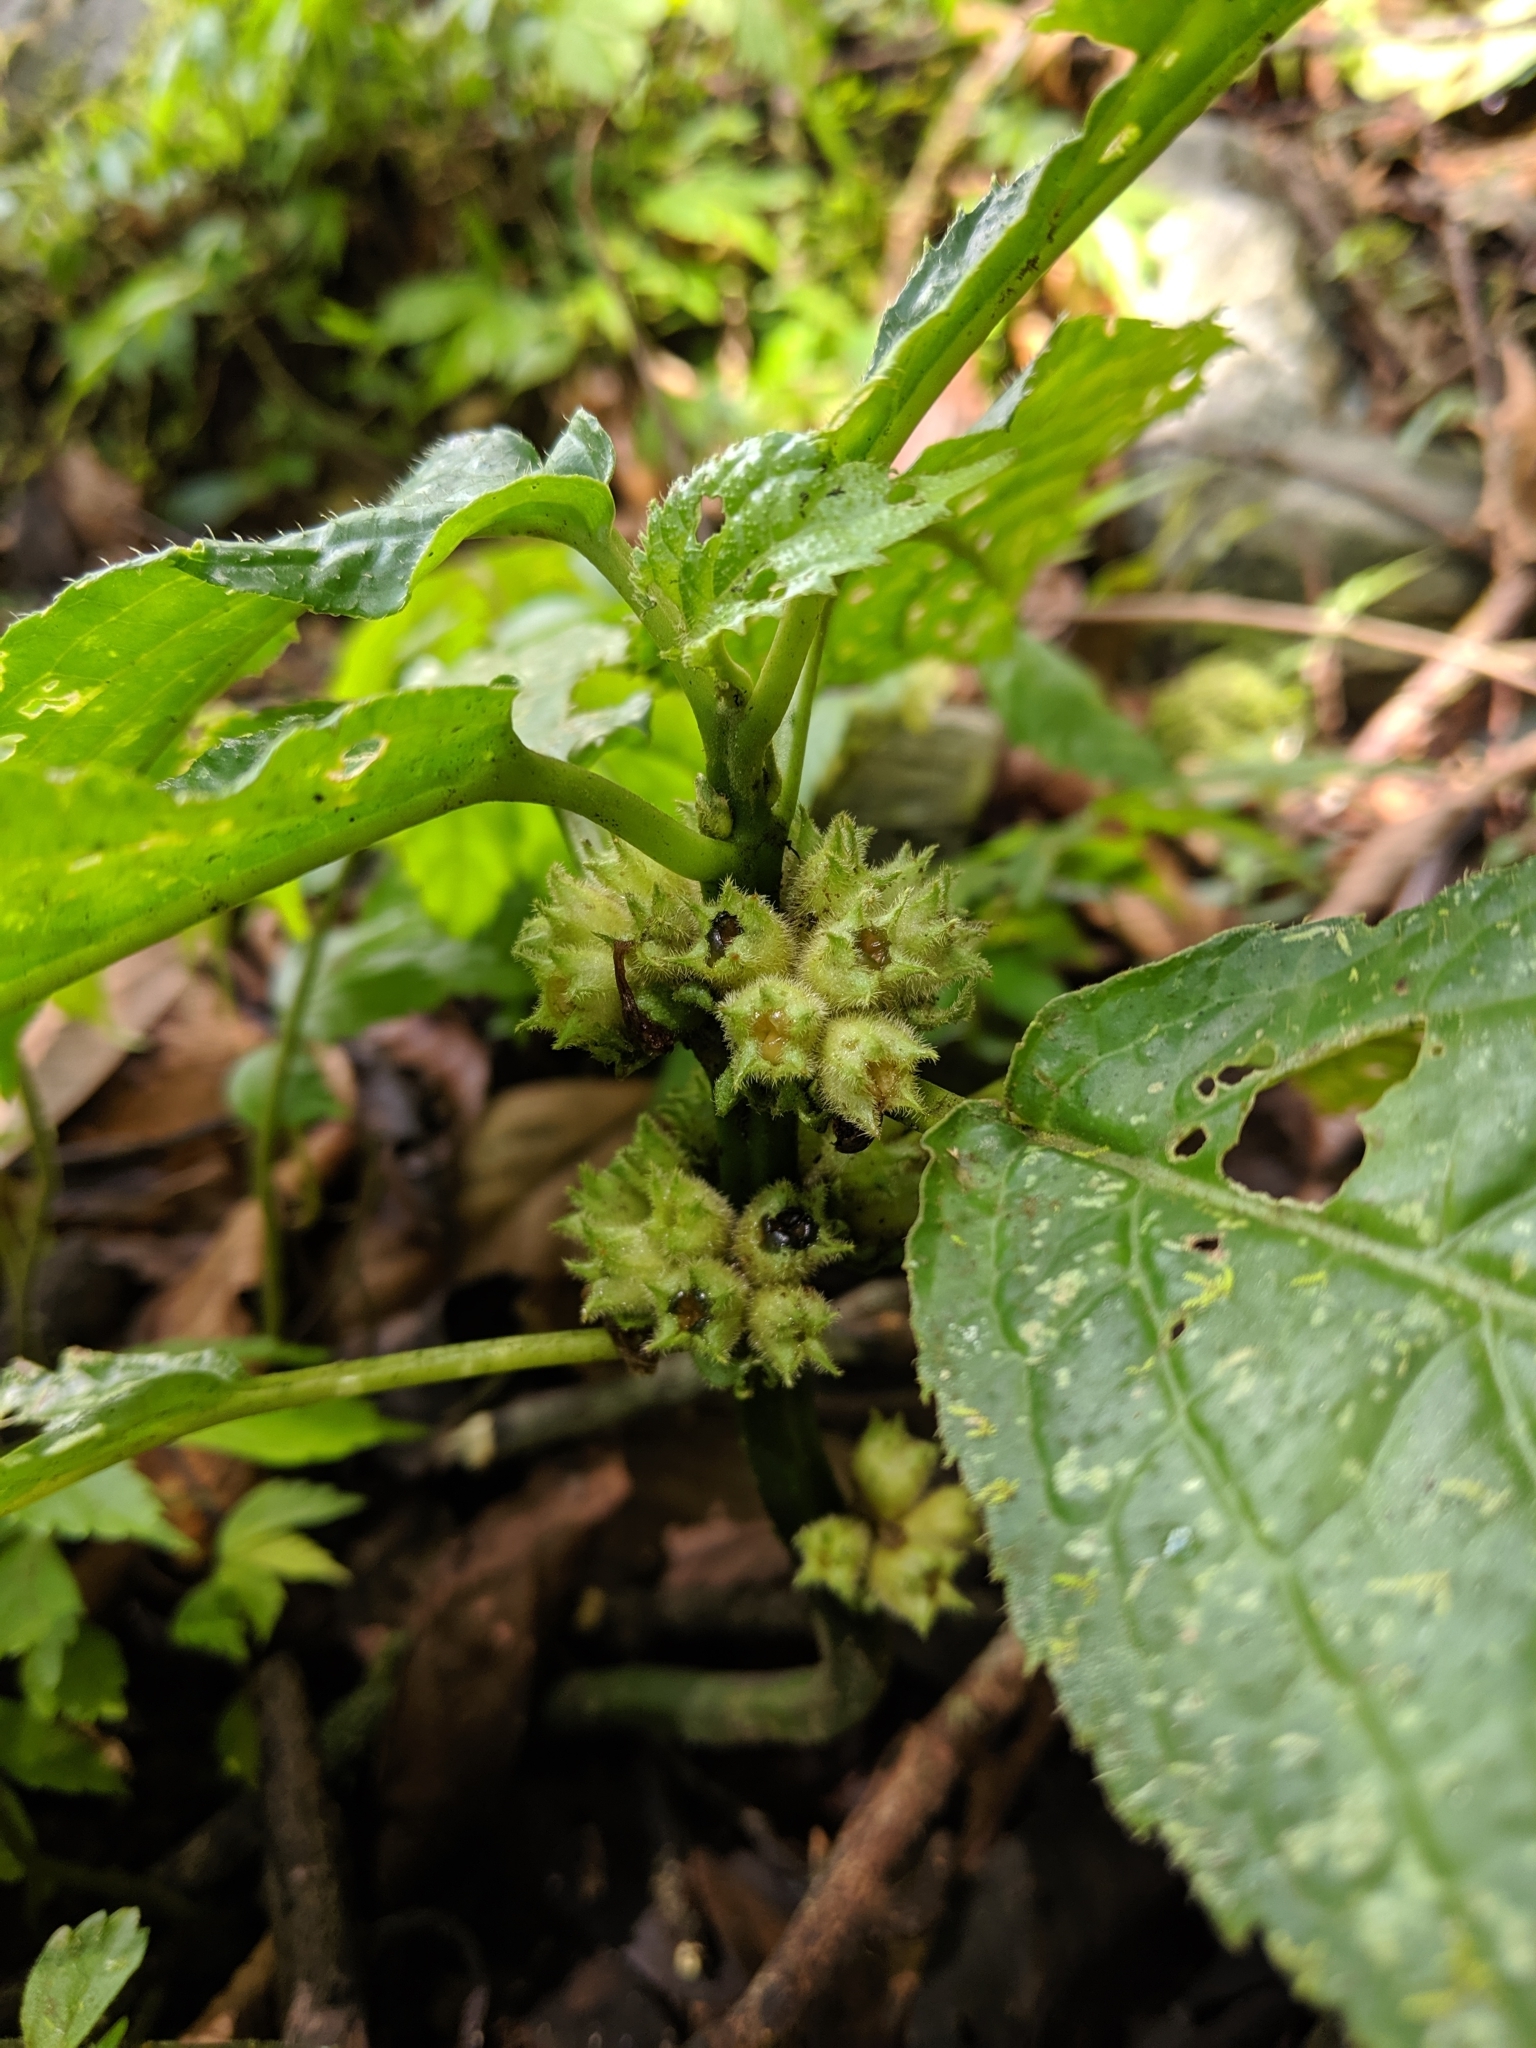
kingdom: Plantae
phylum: Tracheophyta
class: Magnoliopsida
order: Lamiales
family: Lamiaceae
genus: Paraphlomis
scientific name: Paraphlomis javanica
